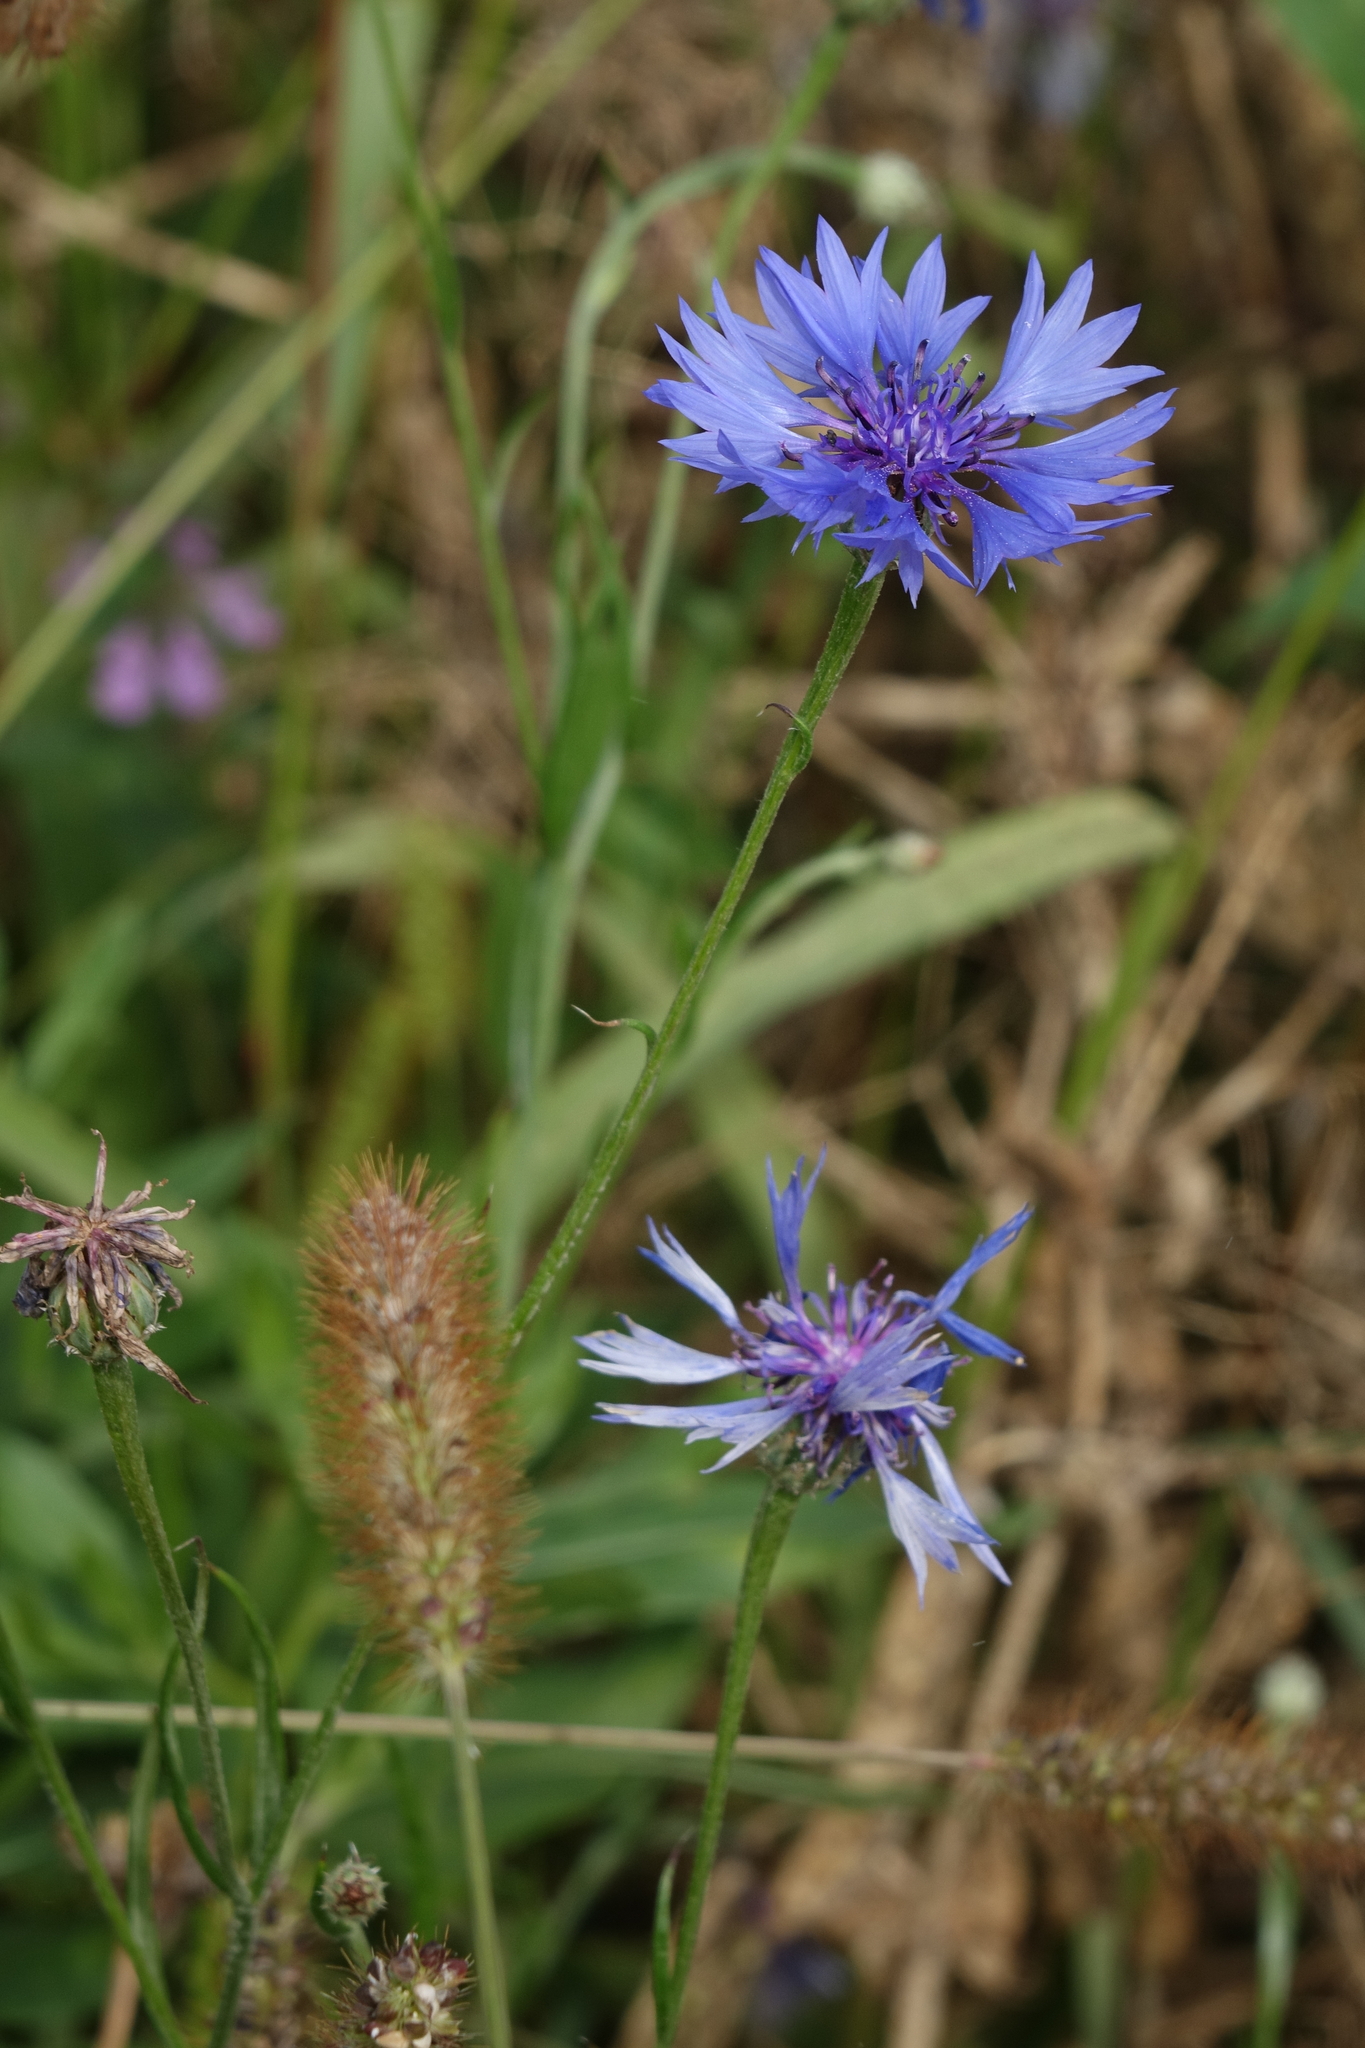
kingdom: Plantae
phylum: Tracheophyta
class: Magnoliopsida
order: Asterales
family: Asteraceae
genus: Centaurea
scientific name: Centaurea cyanus
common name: Cornflower
